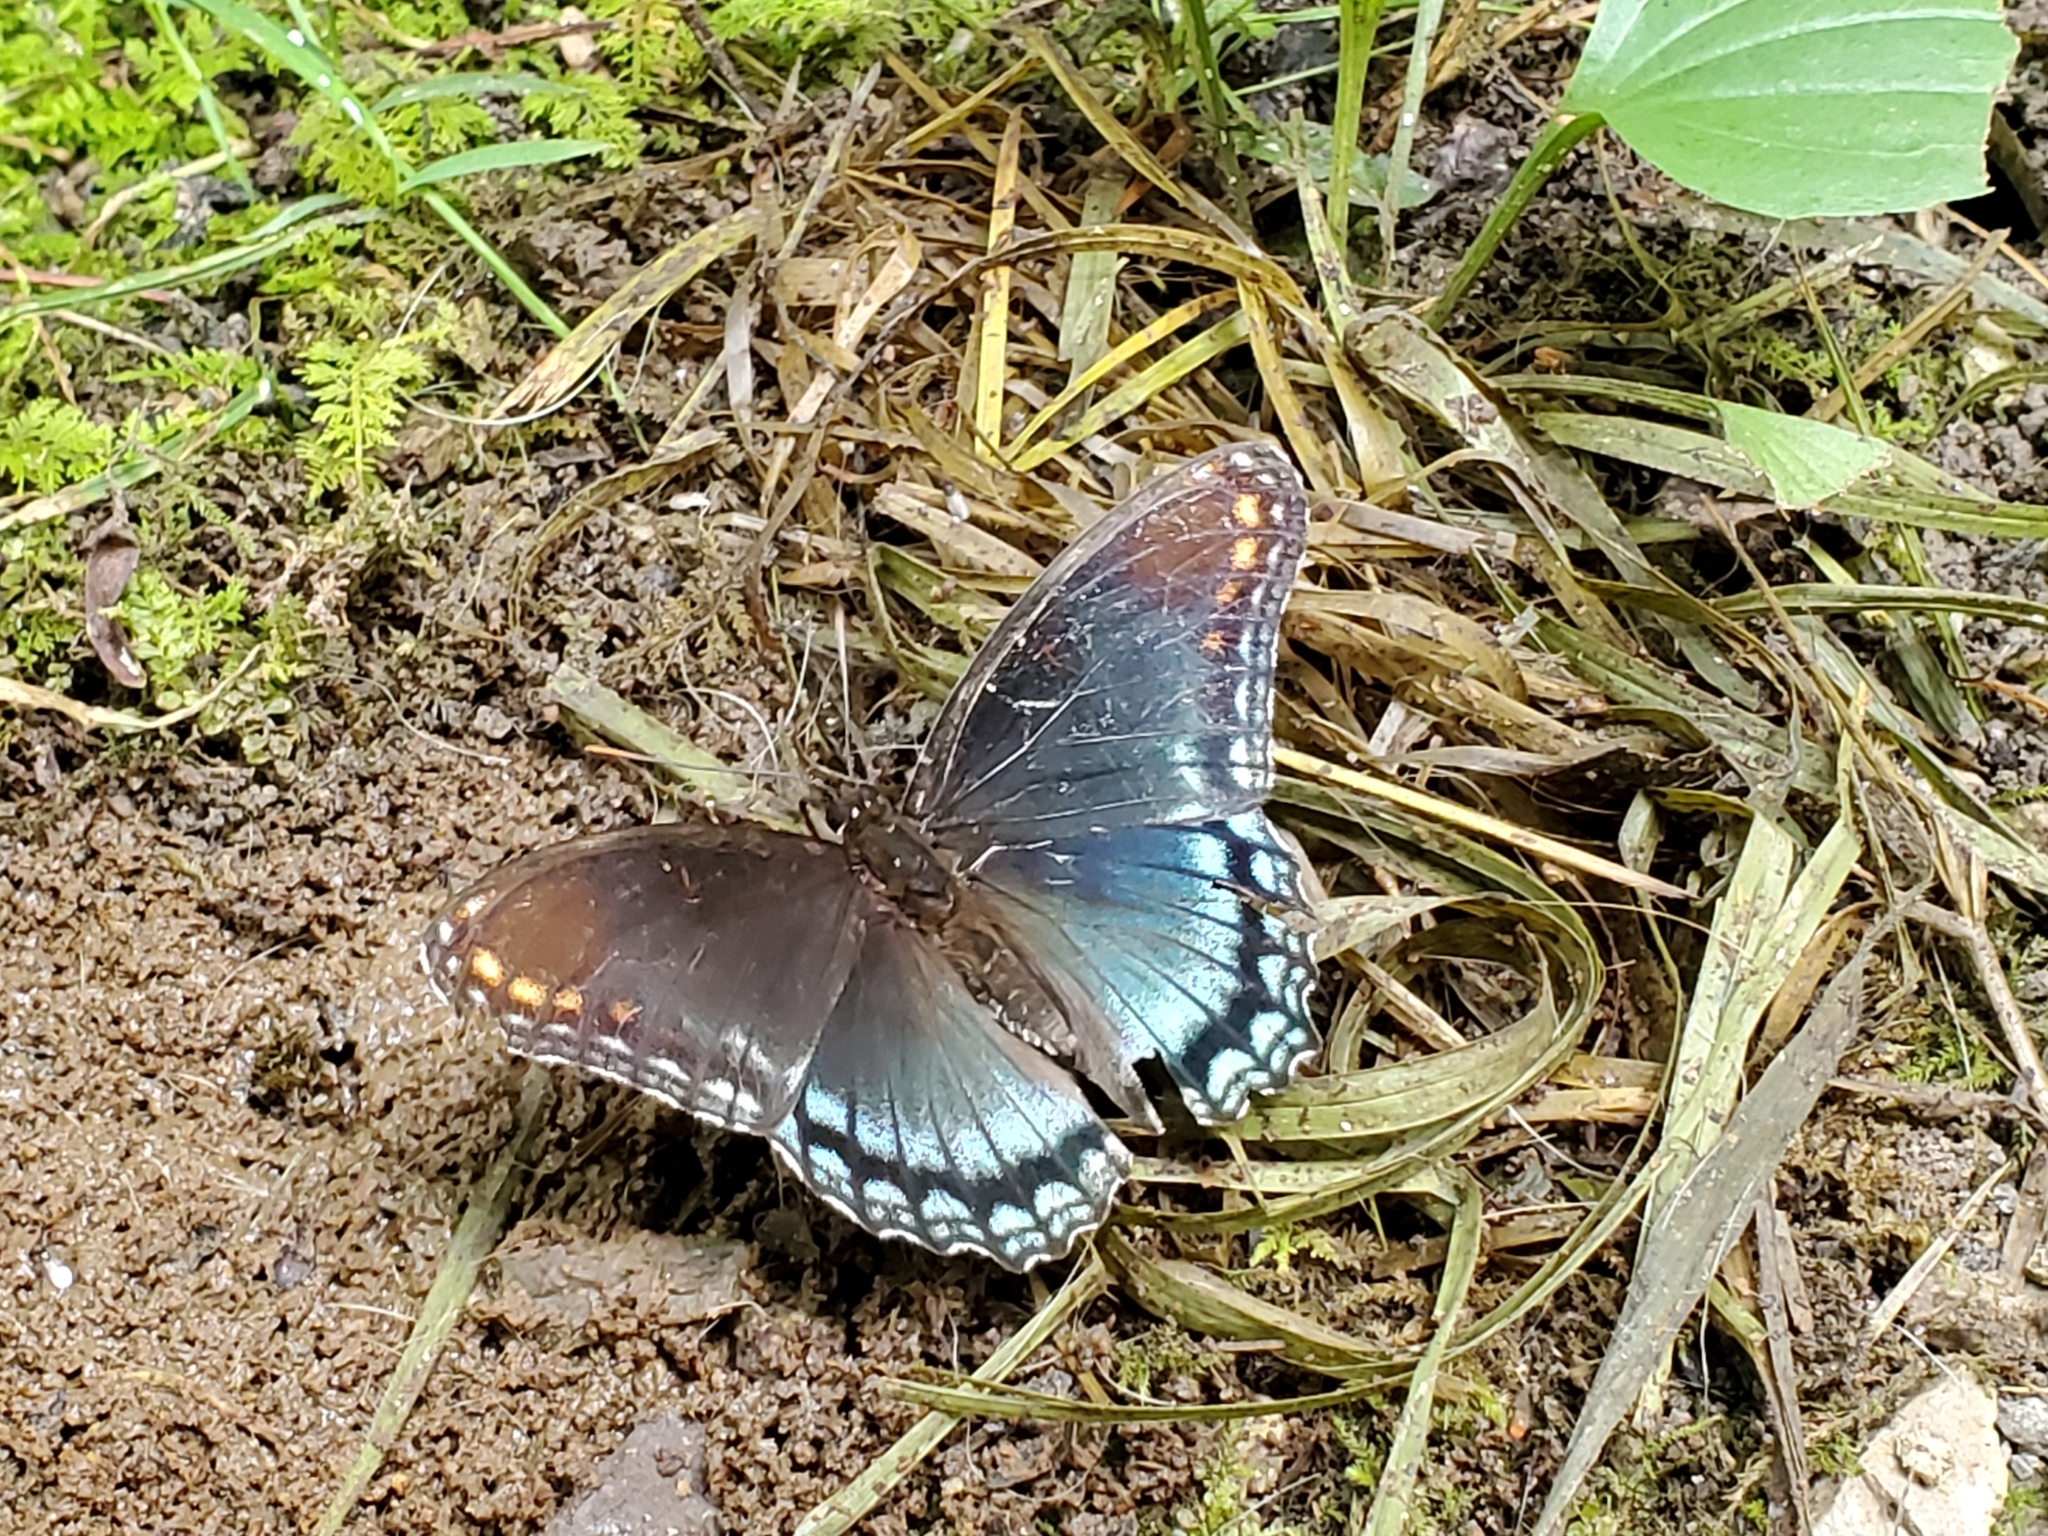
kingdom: Animalia
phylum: Arthropoda
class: Insecta
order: Lepidoptera
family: Nymphalidae
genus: Limenitis
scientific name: Limenitis arthemis
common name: Red-spotted admiral
